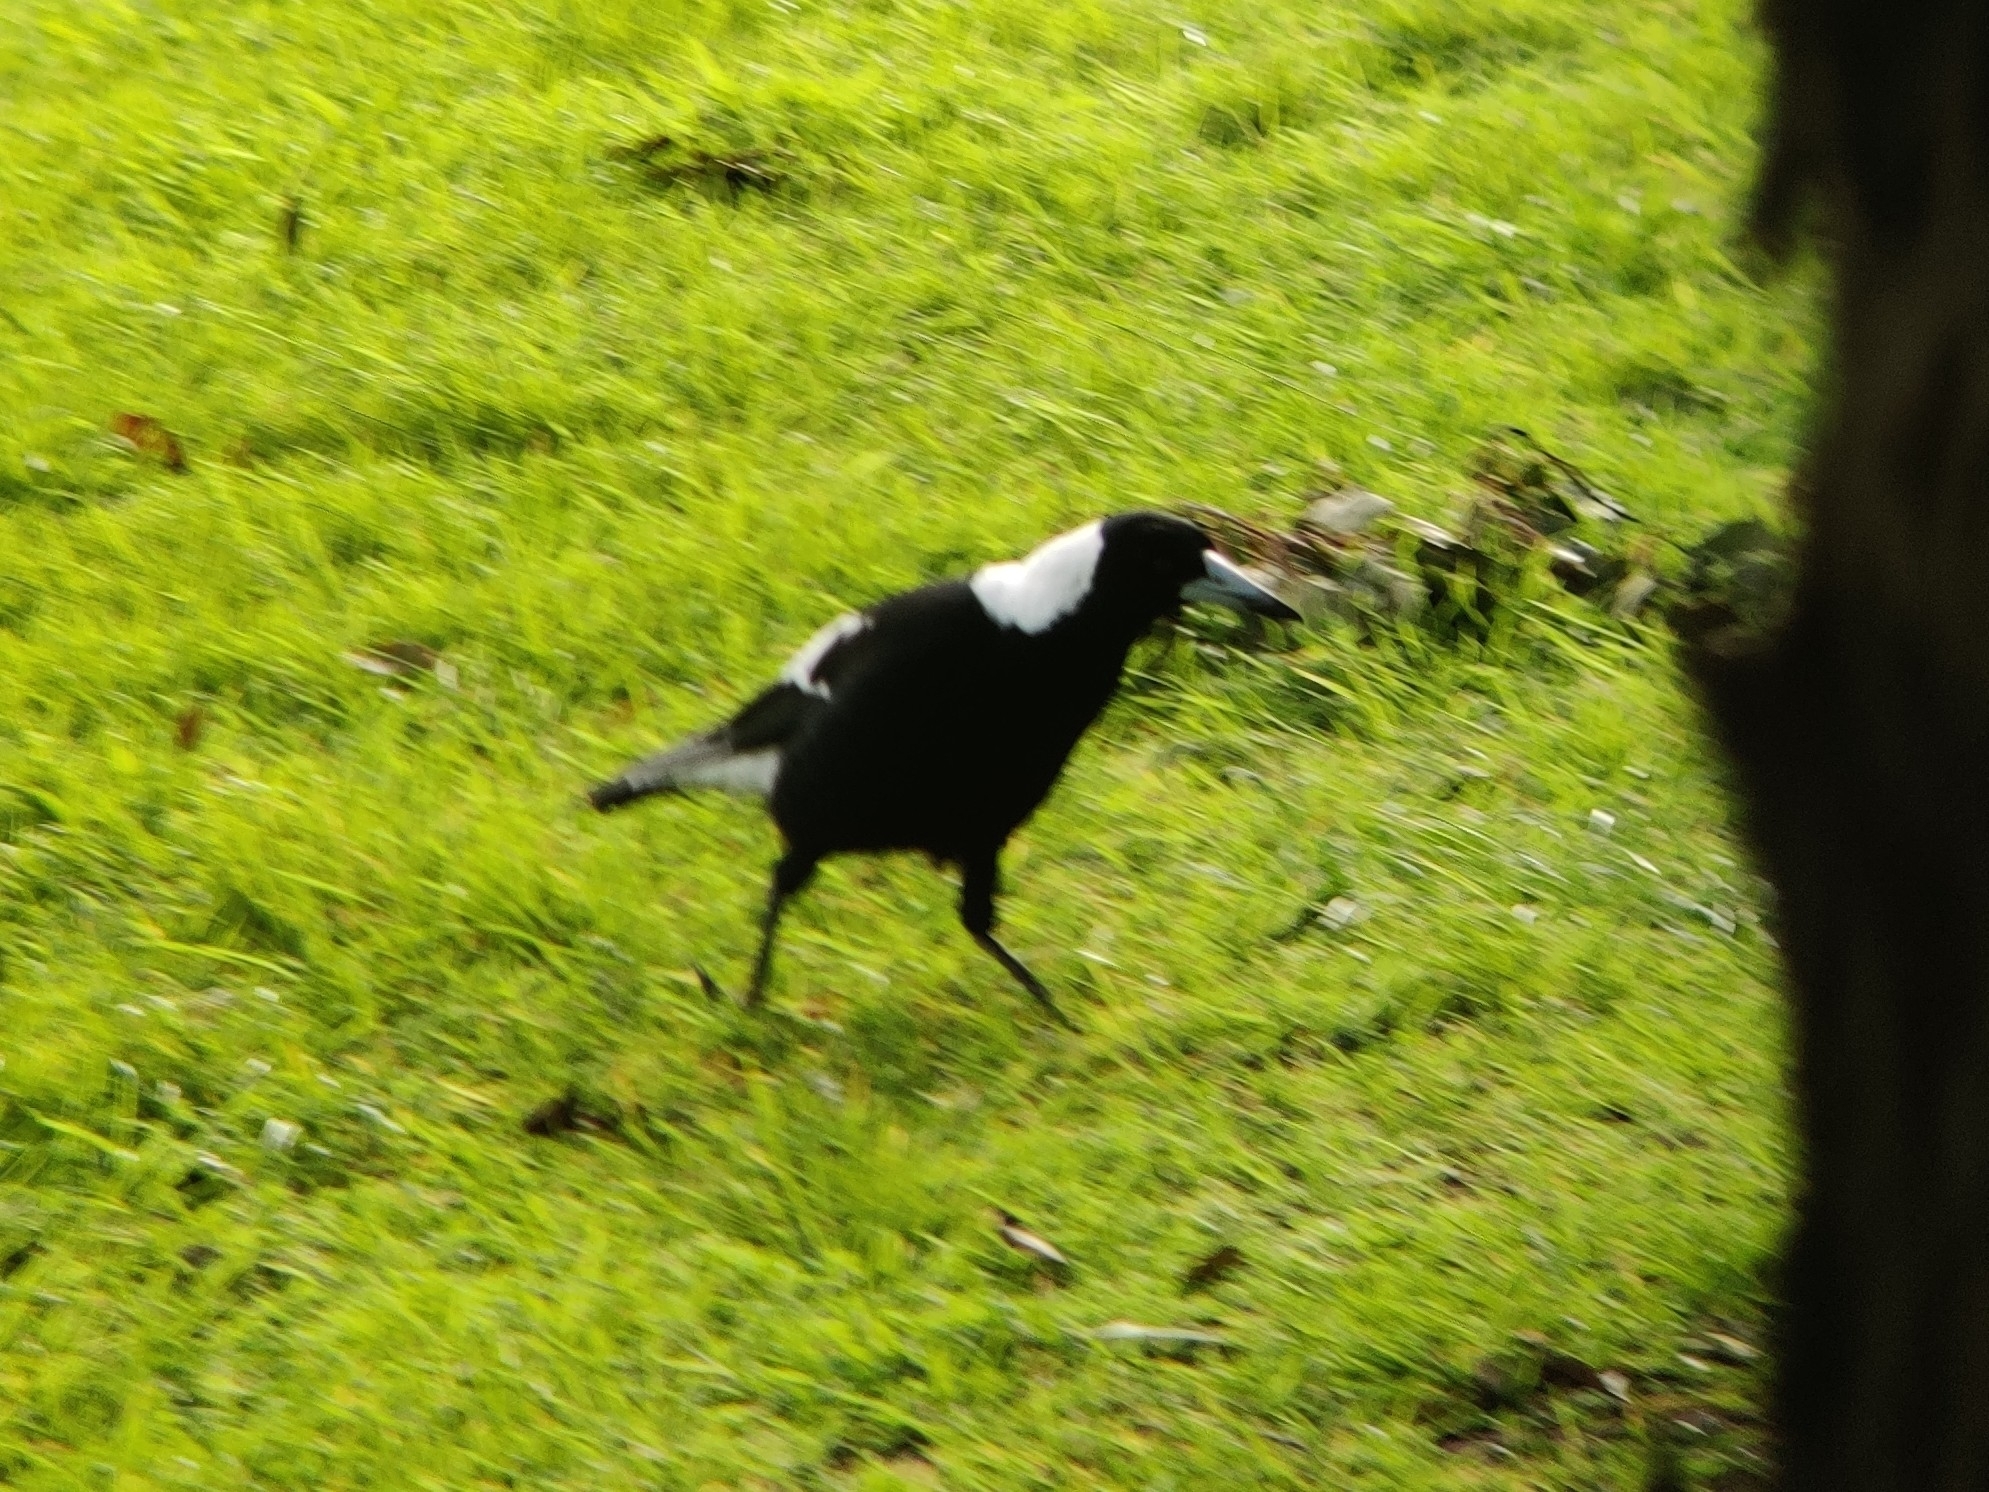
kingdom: Animalia
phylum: Chordata
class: Aves
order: Passeriformes
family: Cracticidae
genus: Gymnorhina
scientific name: Gymnorhina tibicen
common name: Australian magpie
